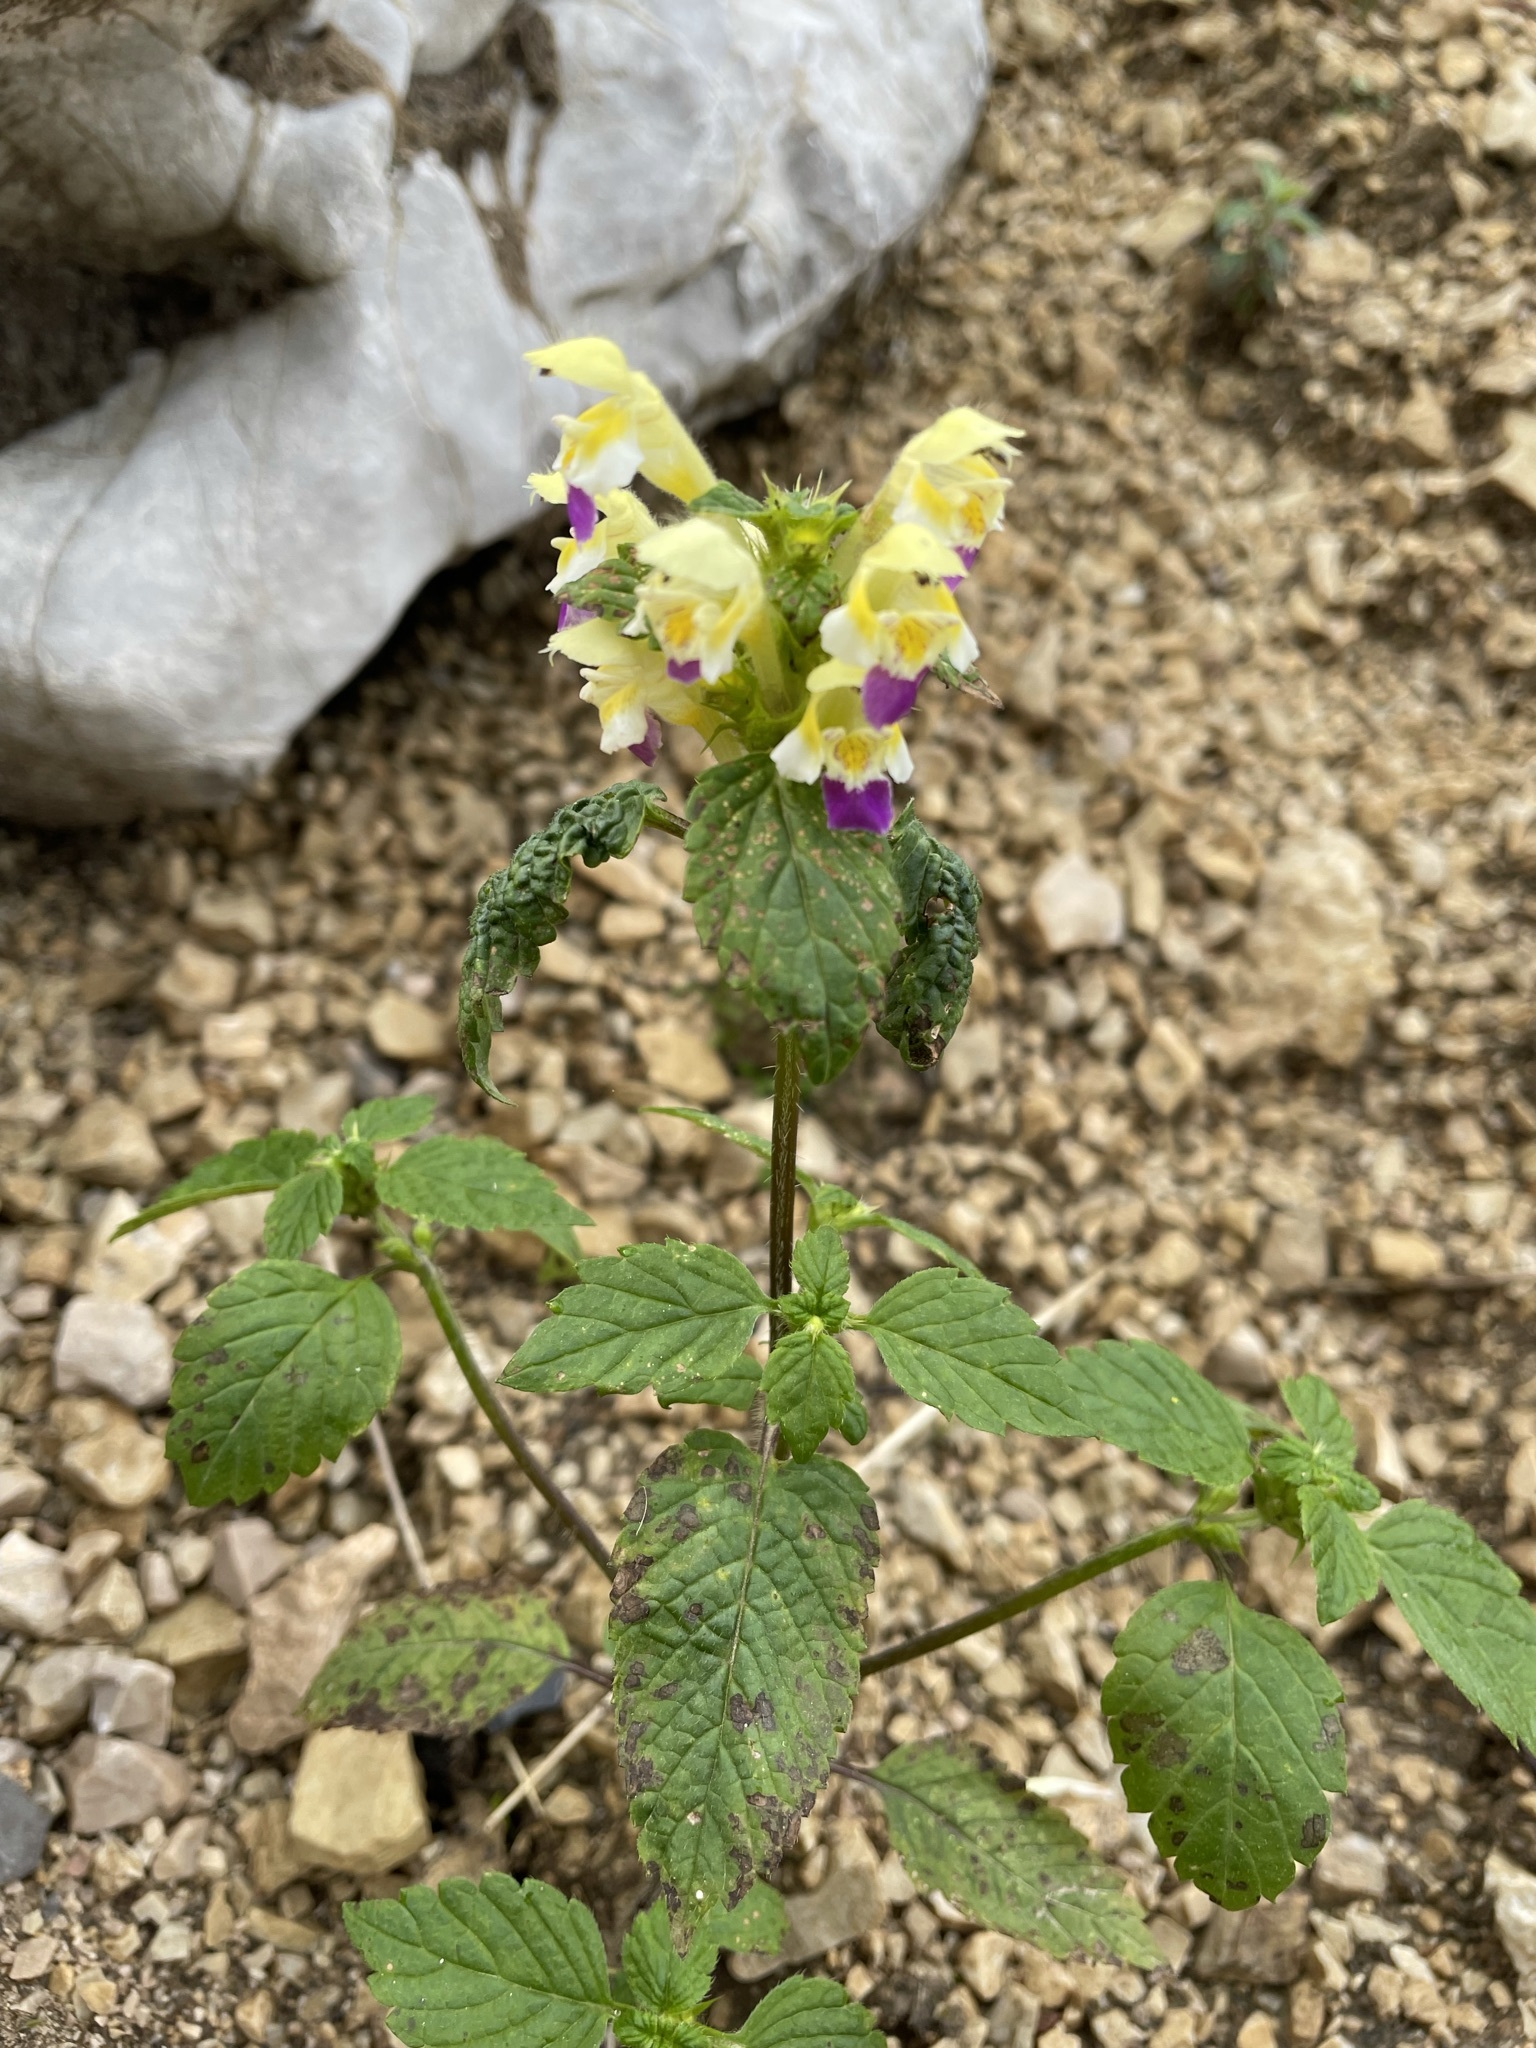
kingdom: Plantae
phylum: Tracheophyta
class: Magnoliopsida
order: Lamiales
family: Lamiaceae
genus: Galeopsis
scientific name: Galeopsis speciosa
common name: Large-flowered hemp-nettle
